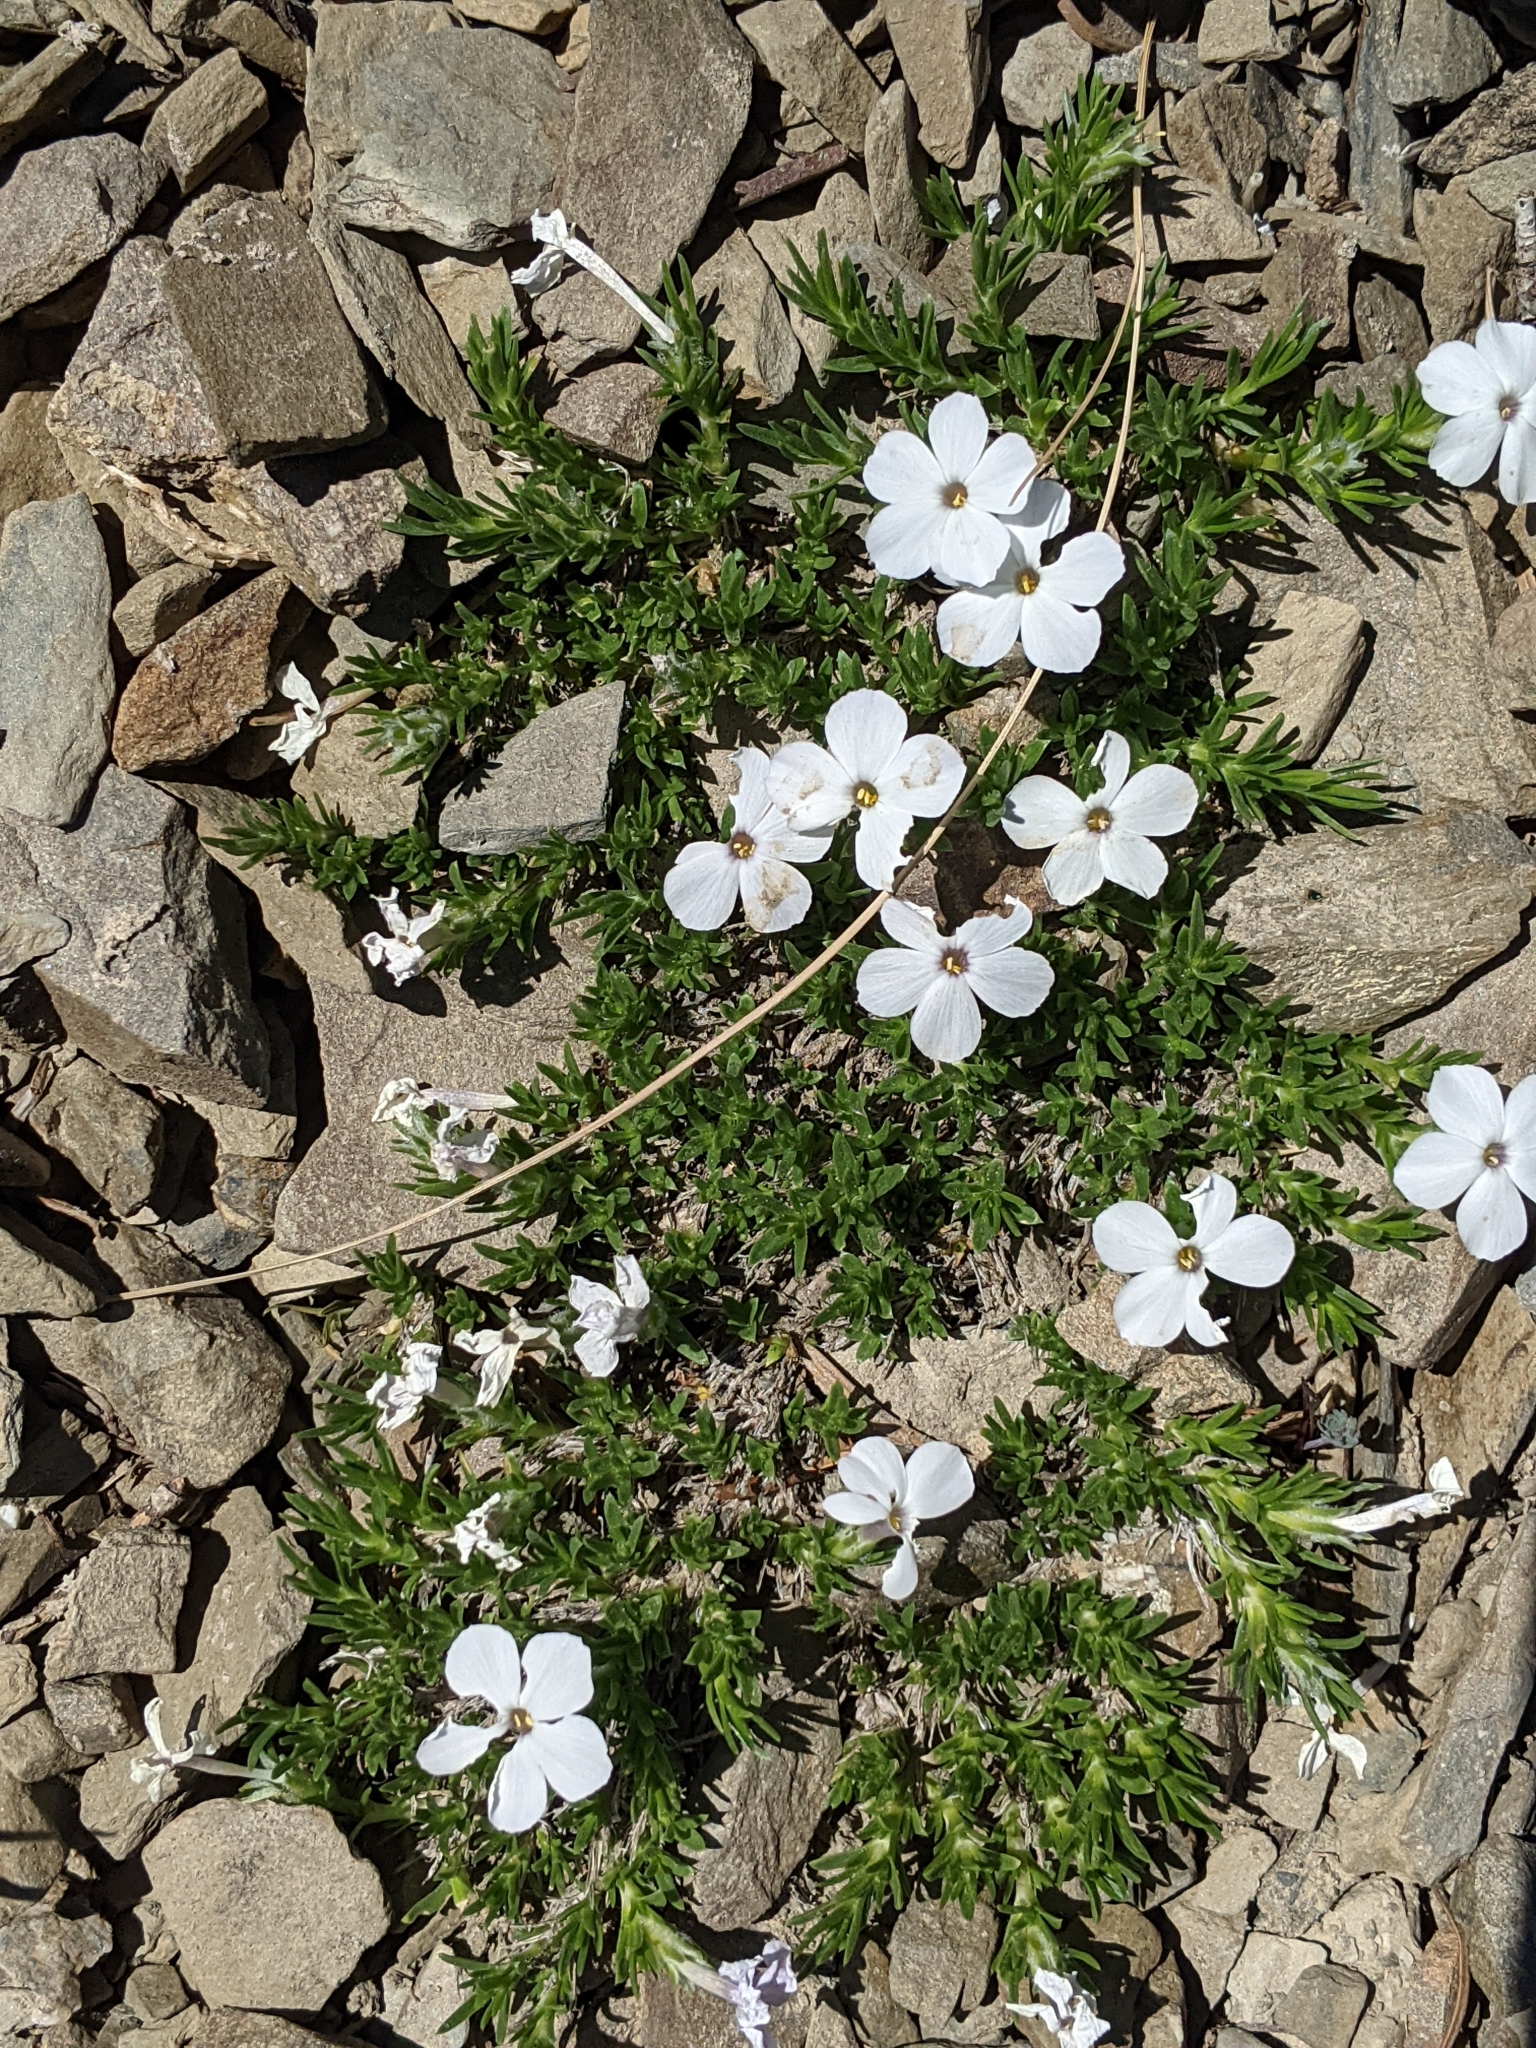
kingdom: Plantae
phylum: Tracheophyta
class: Magnoliopsida
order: Ericales
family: Polemoniaceae
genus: Phlox
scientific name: Phlox diffusa
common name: Mat phlox
